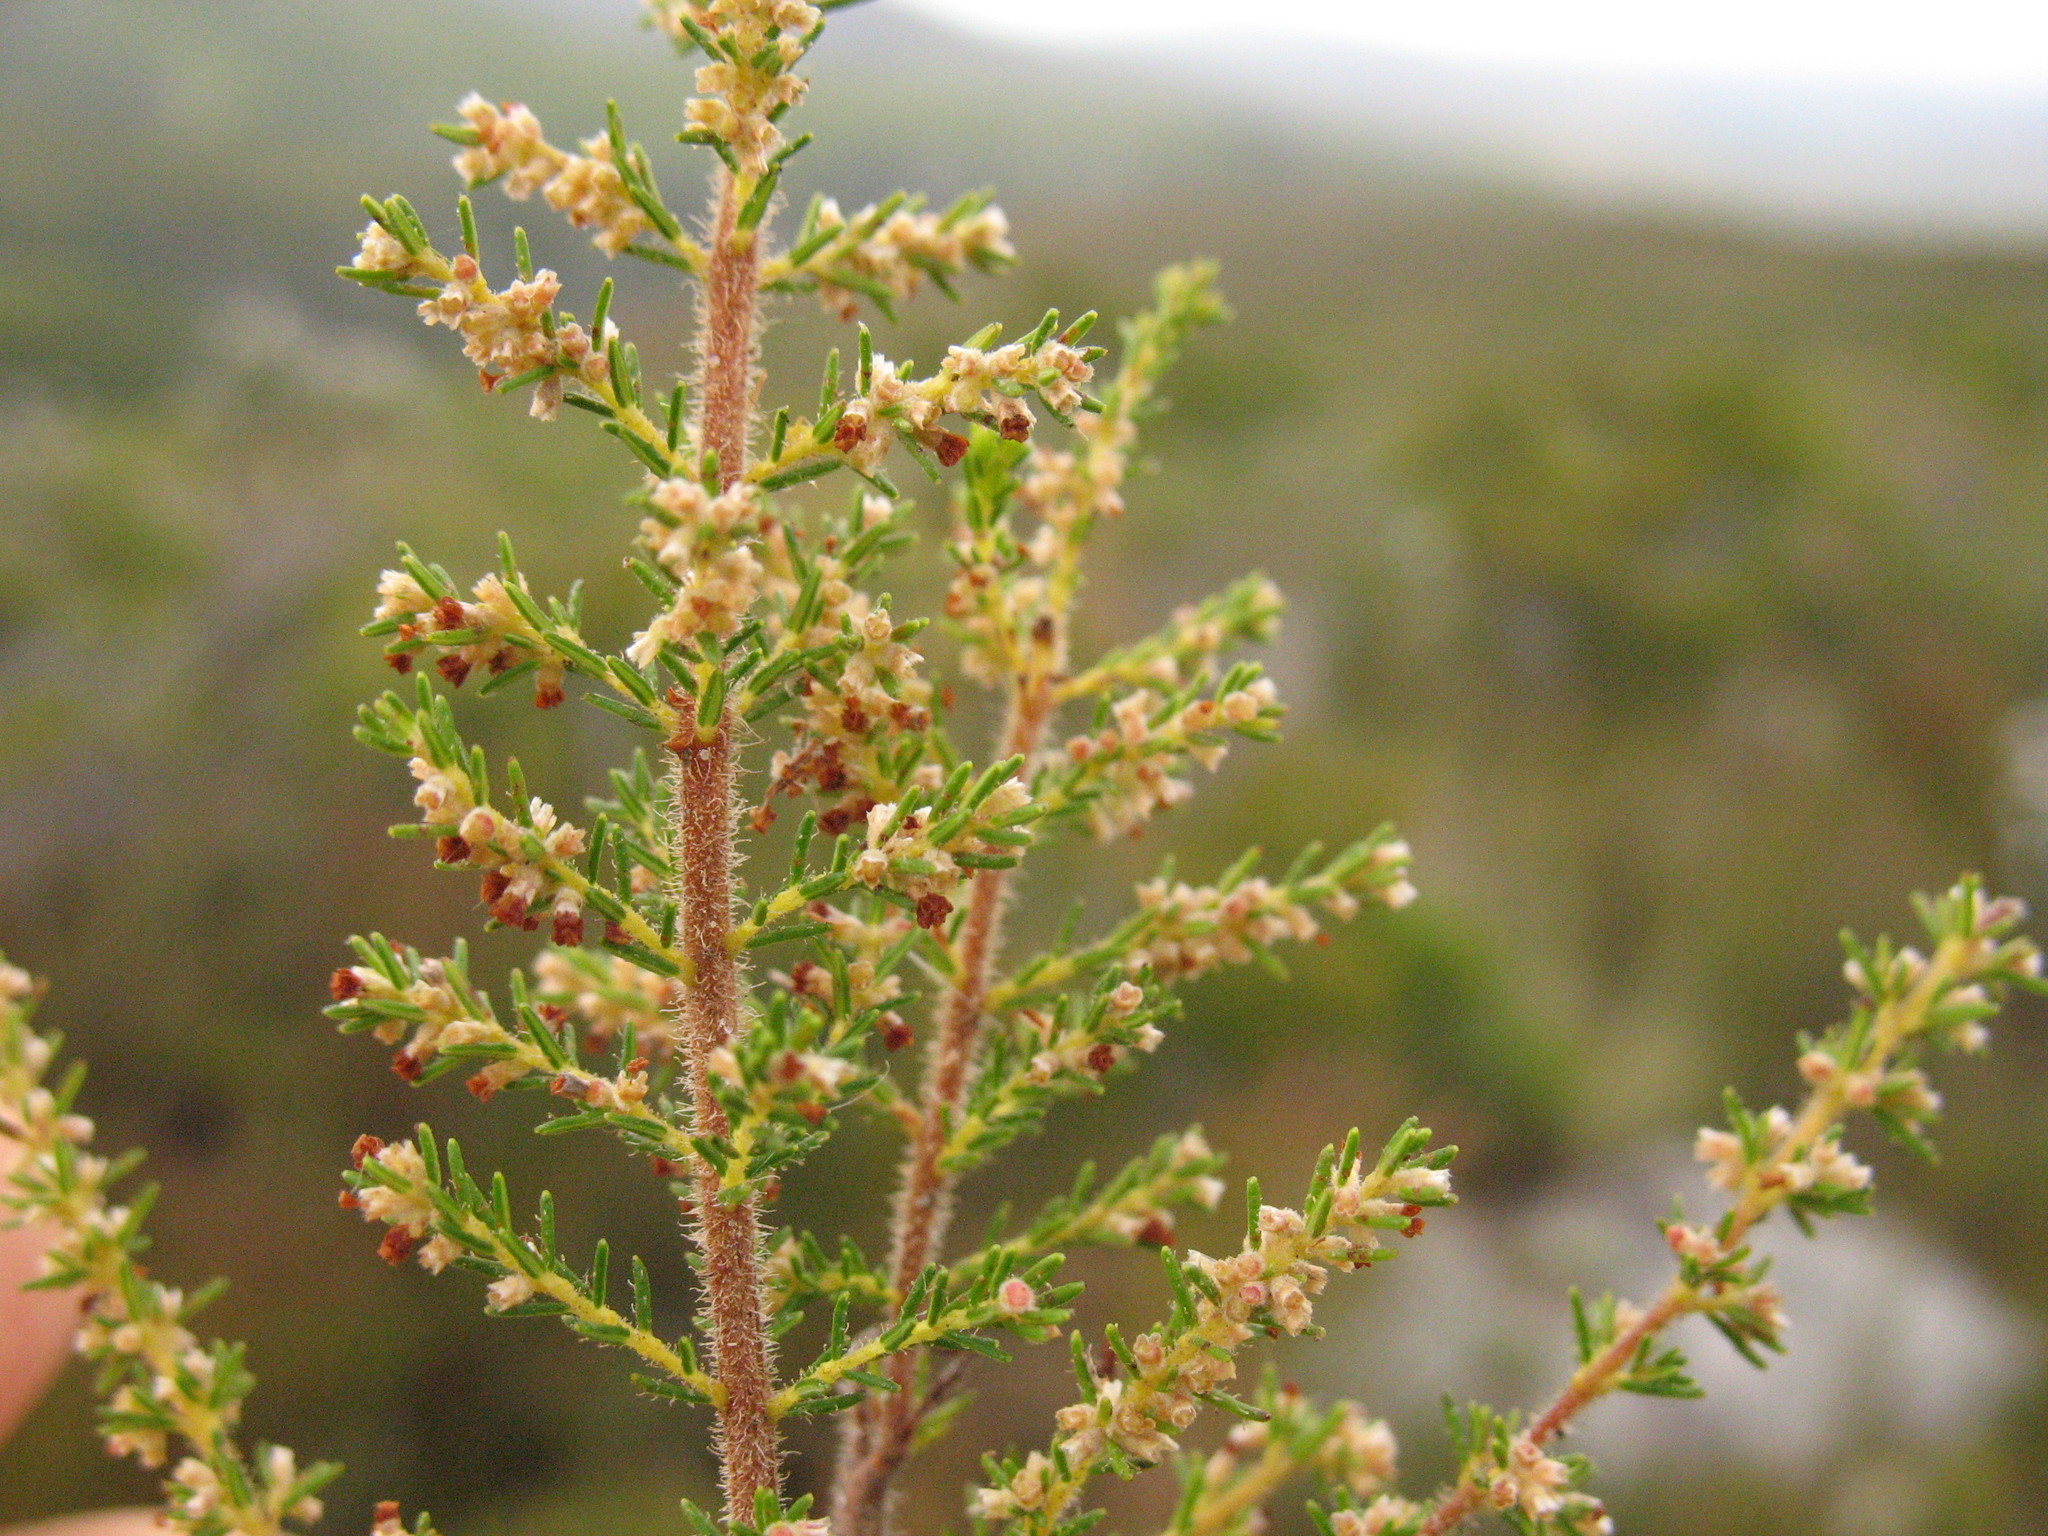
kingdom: Plantae
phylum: Tracheophyta
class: Magnoliopsida
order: Ericales
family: Ericaceae
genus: Erica
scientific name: Erica muscosa
